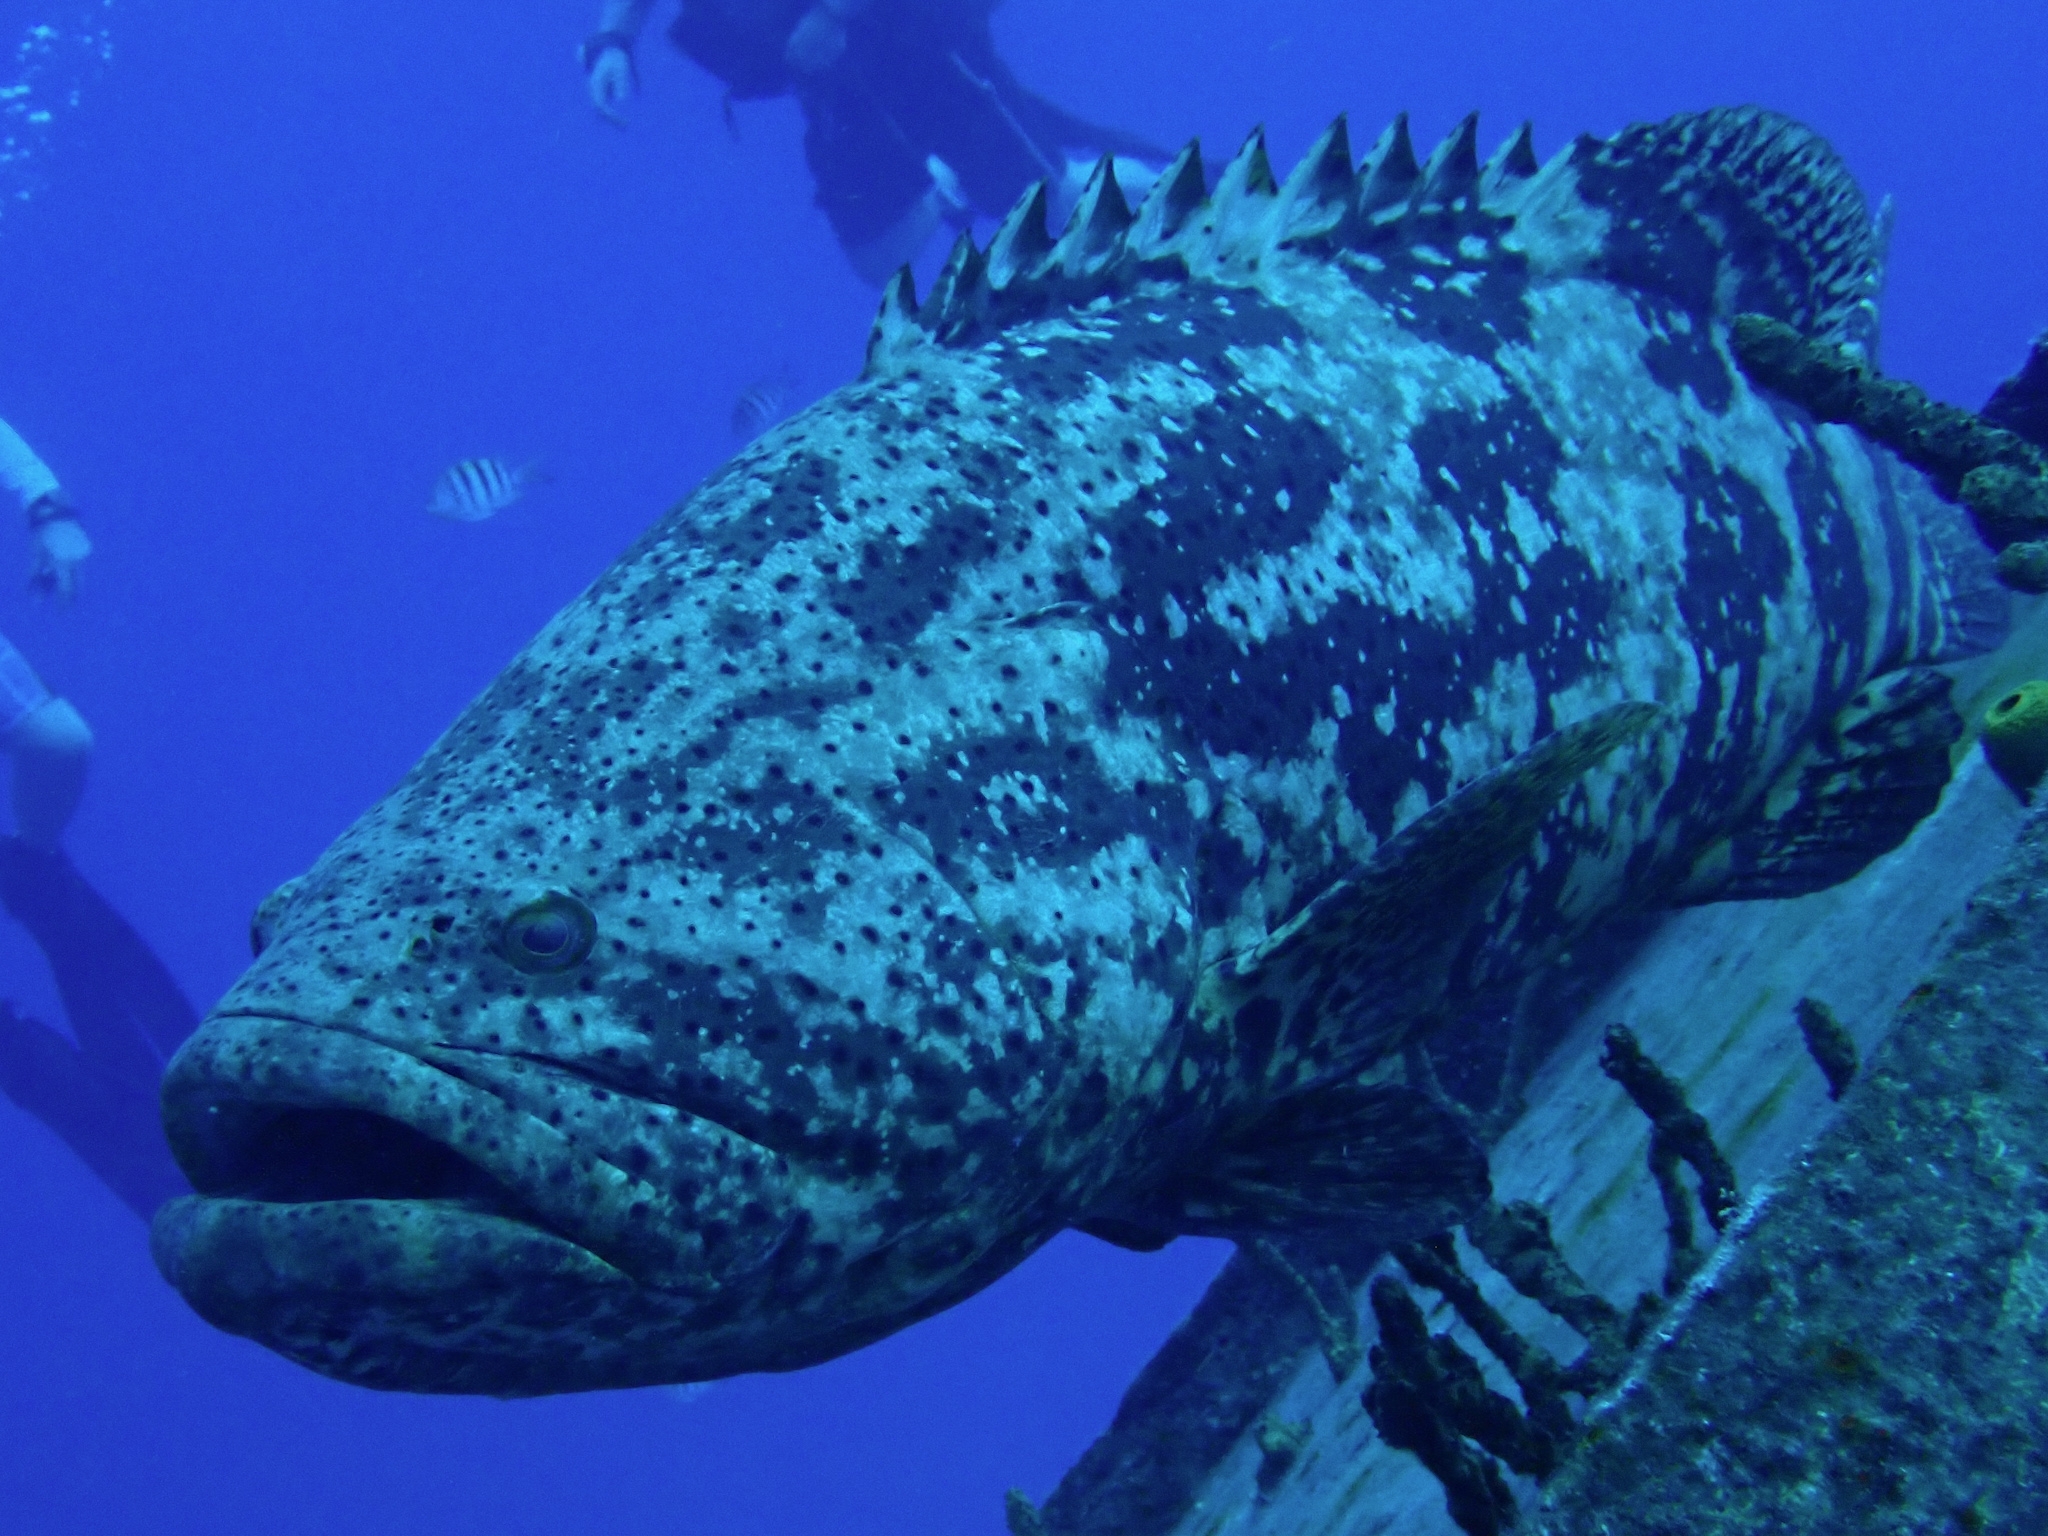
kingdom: Animalia
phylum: Chordata
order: Perciformes
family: Serranidae
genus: Epinephelus
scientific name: Epinephelus itajara
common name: Jewfish
